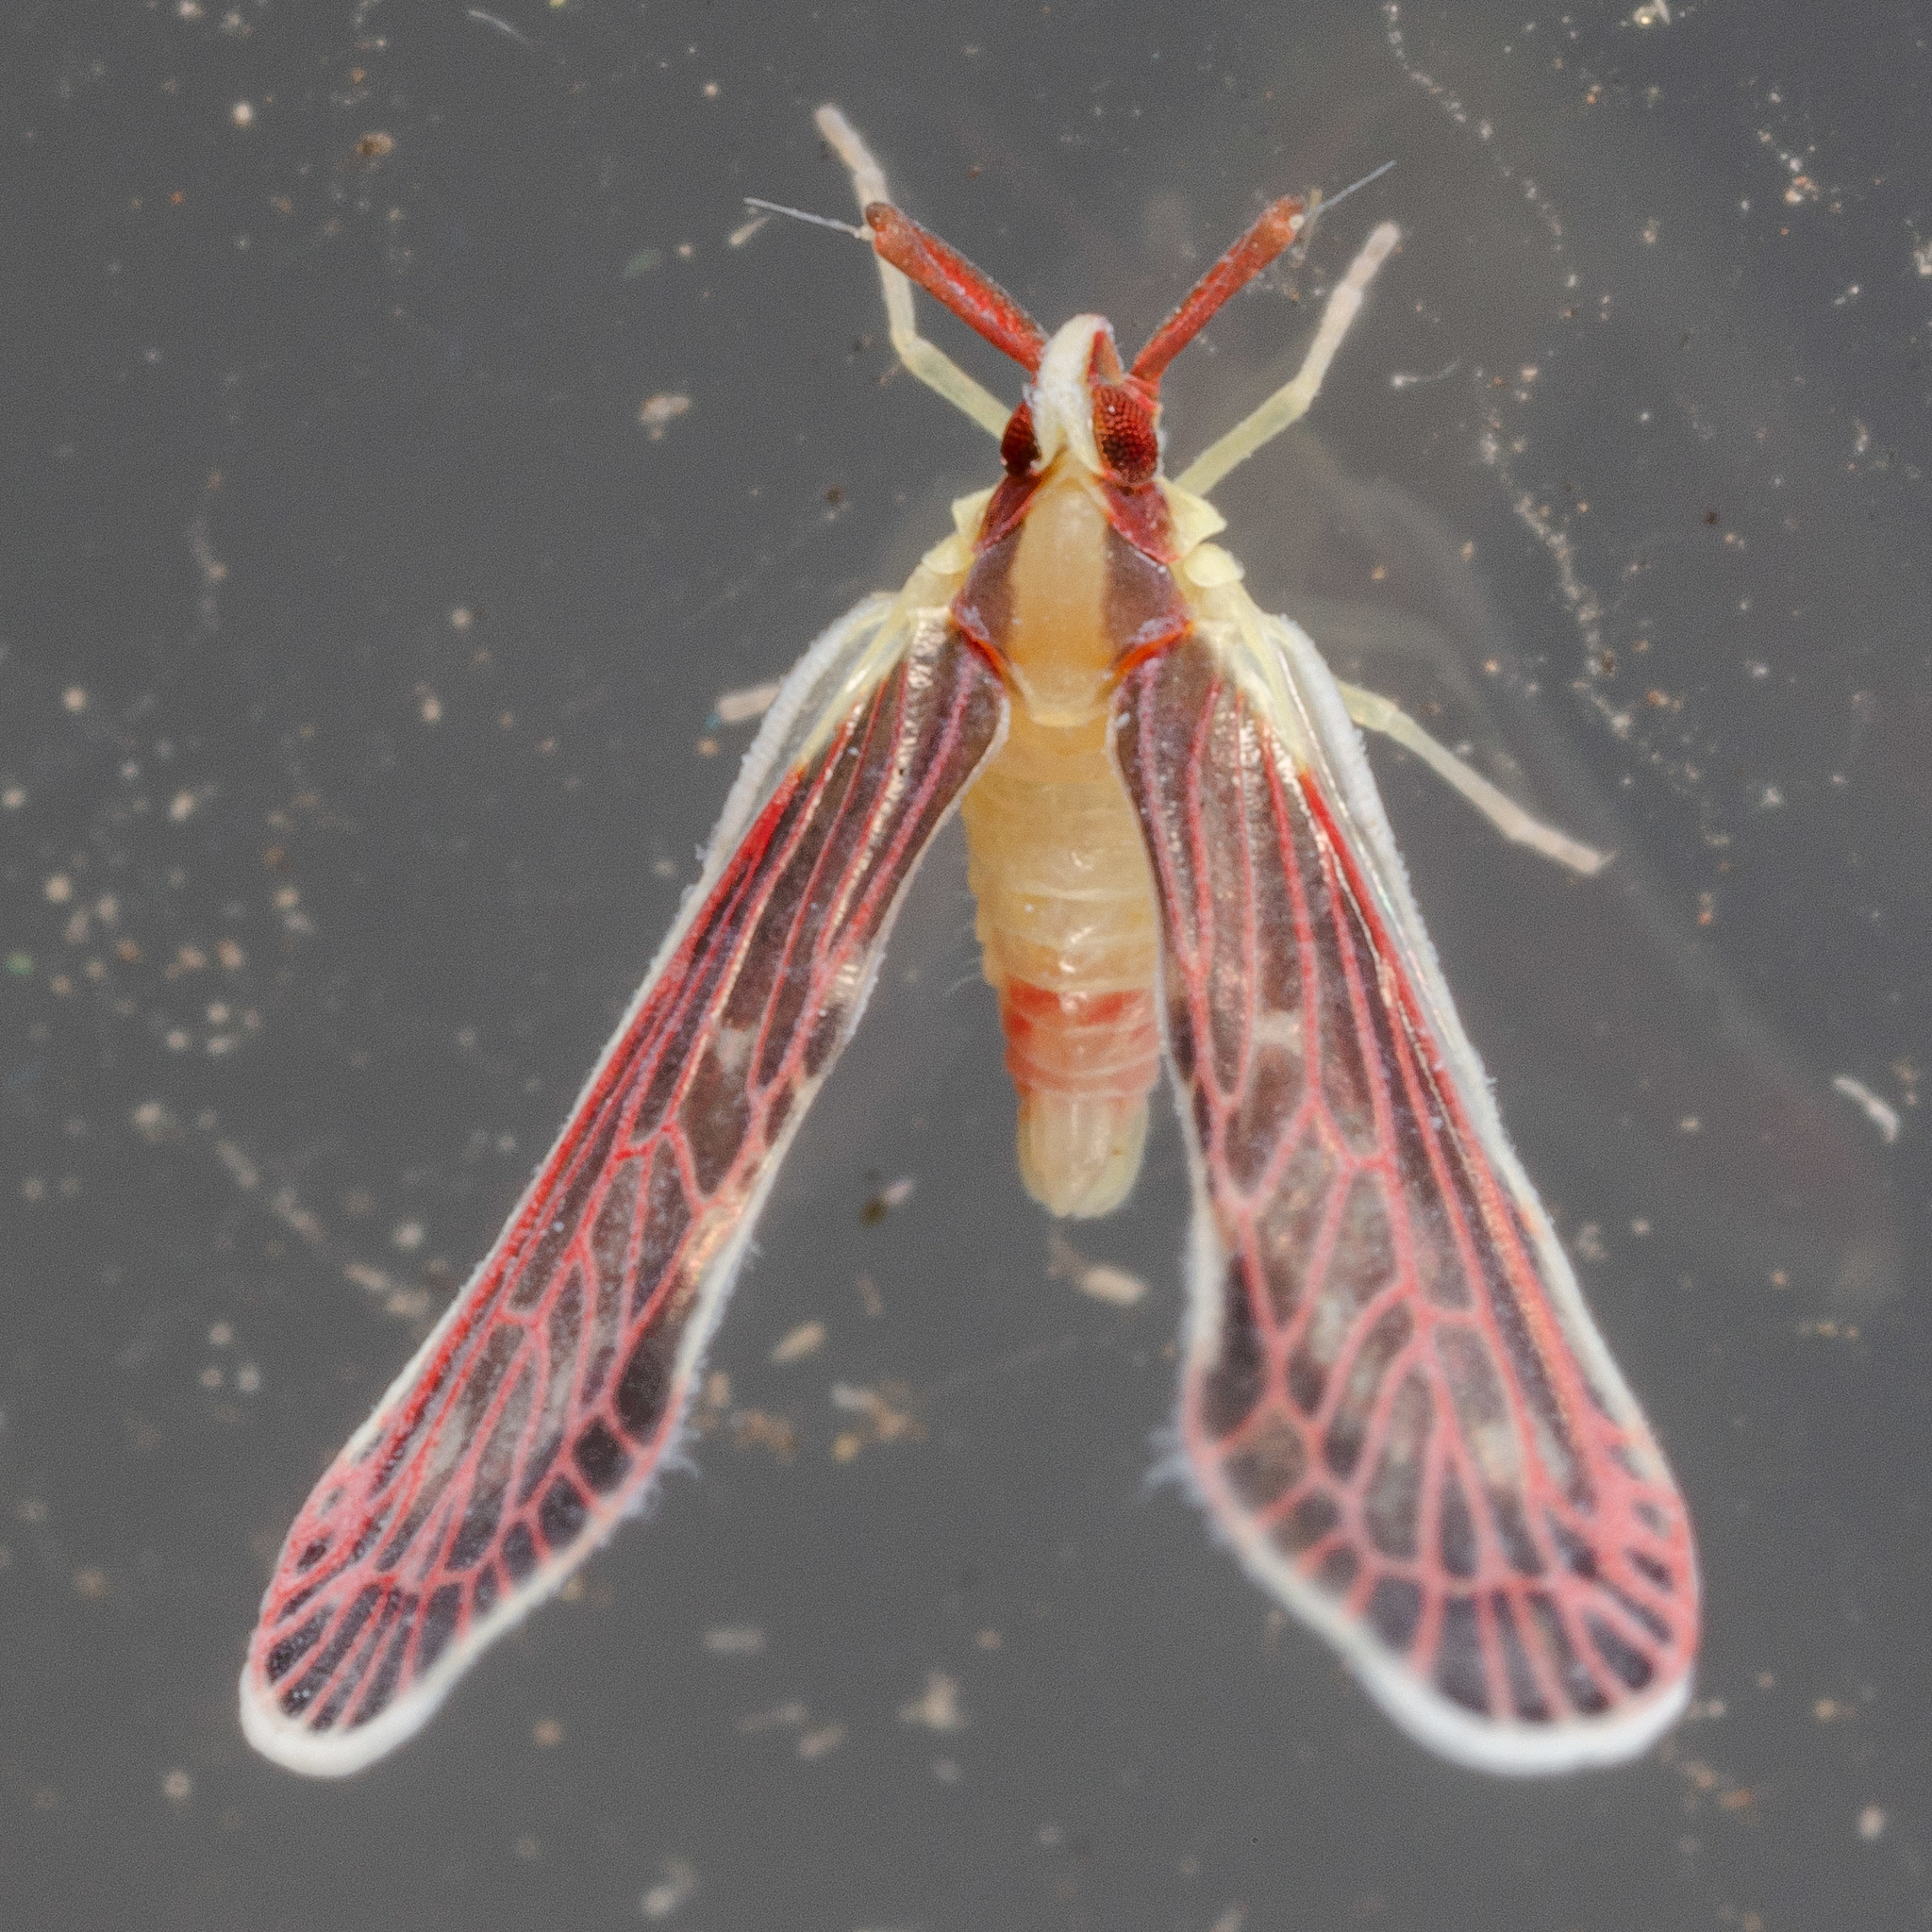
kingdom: Animalia
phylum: Arthropoda
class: Insecta
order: Hemiptera
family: Derbidae
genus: Anotia
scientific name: Anotia firebugia
